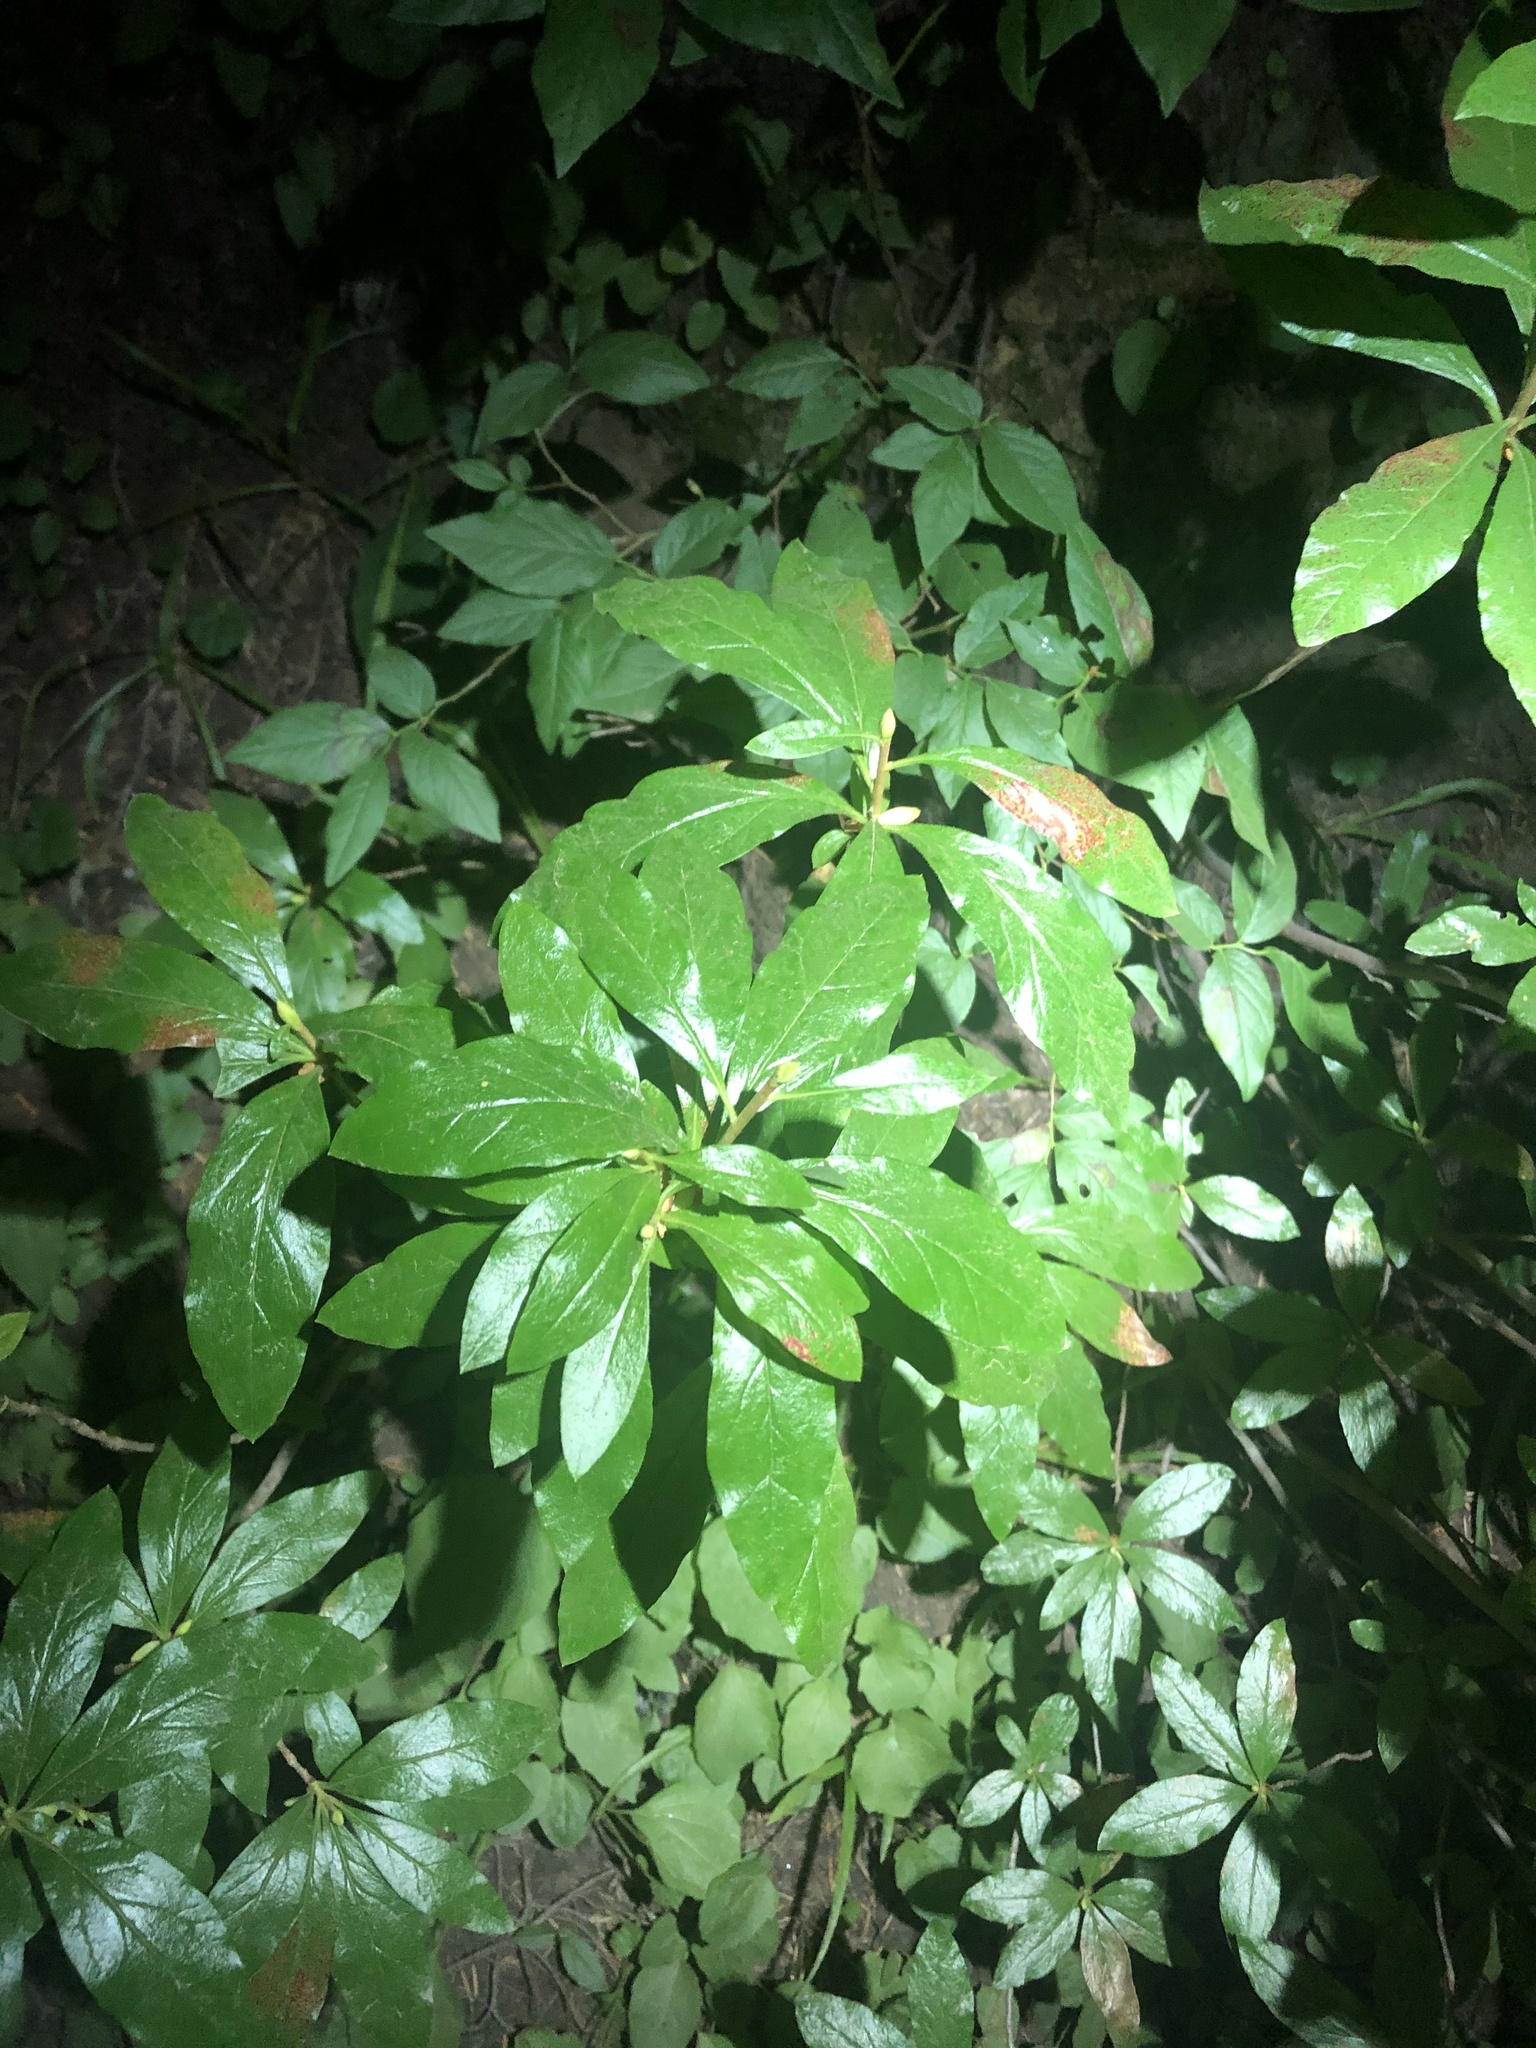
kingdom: Plantae
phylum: Tracheophyta
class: Magnoliopsida
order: Ericales
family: Ericaceae
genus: Rhododendron
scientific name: Rhododendron albiflorum
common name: White rhododendron
